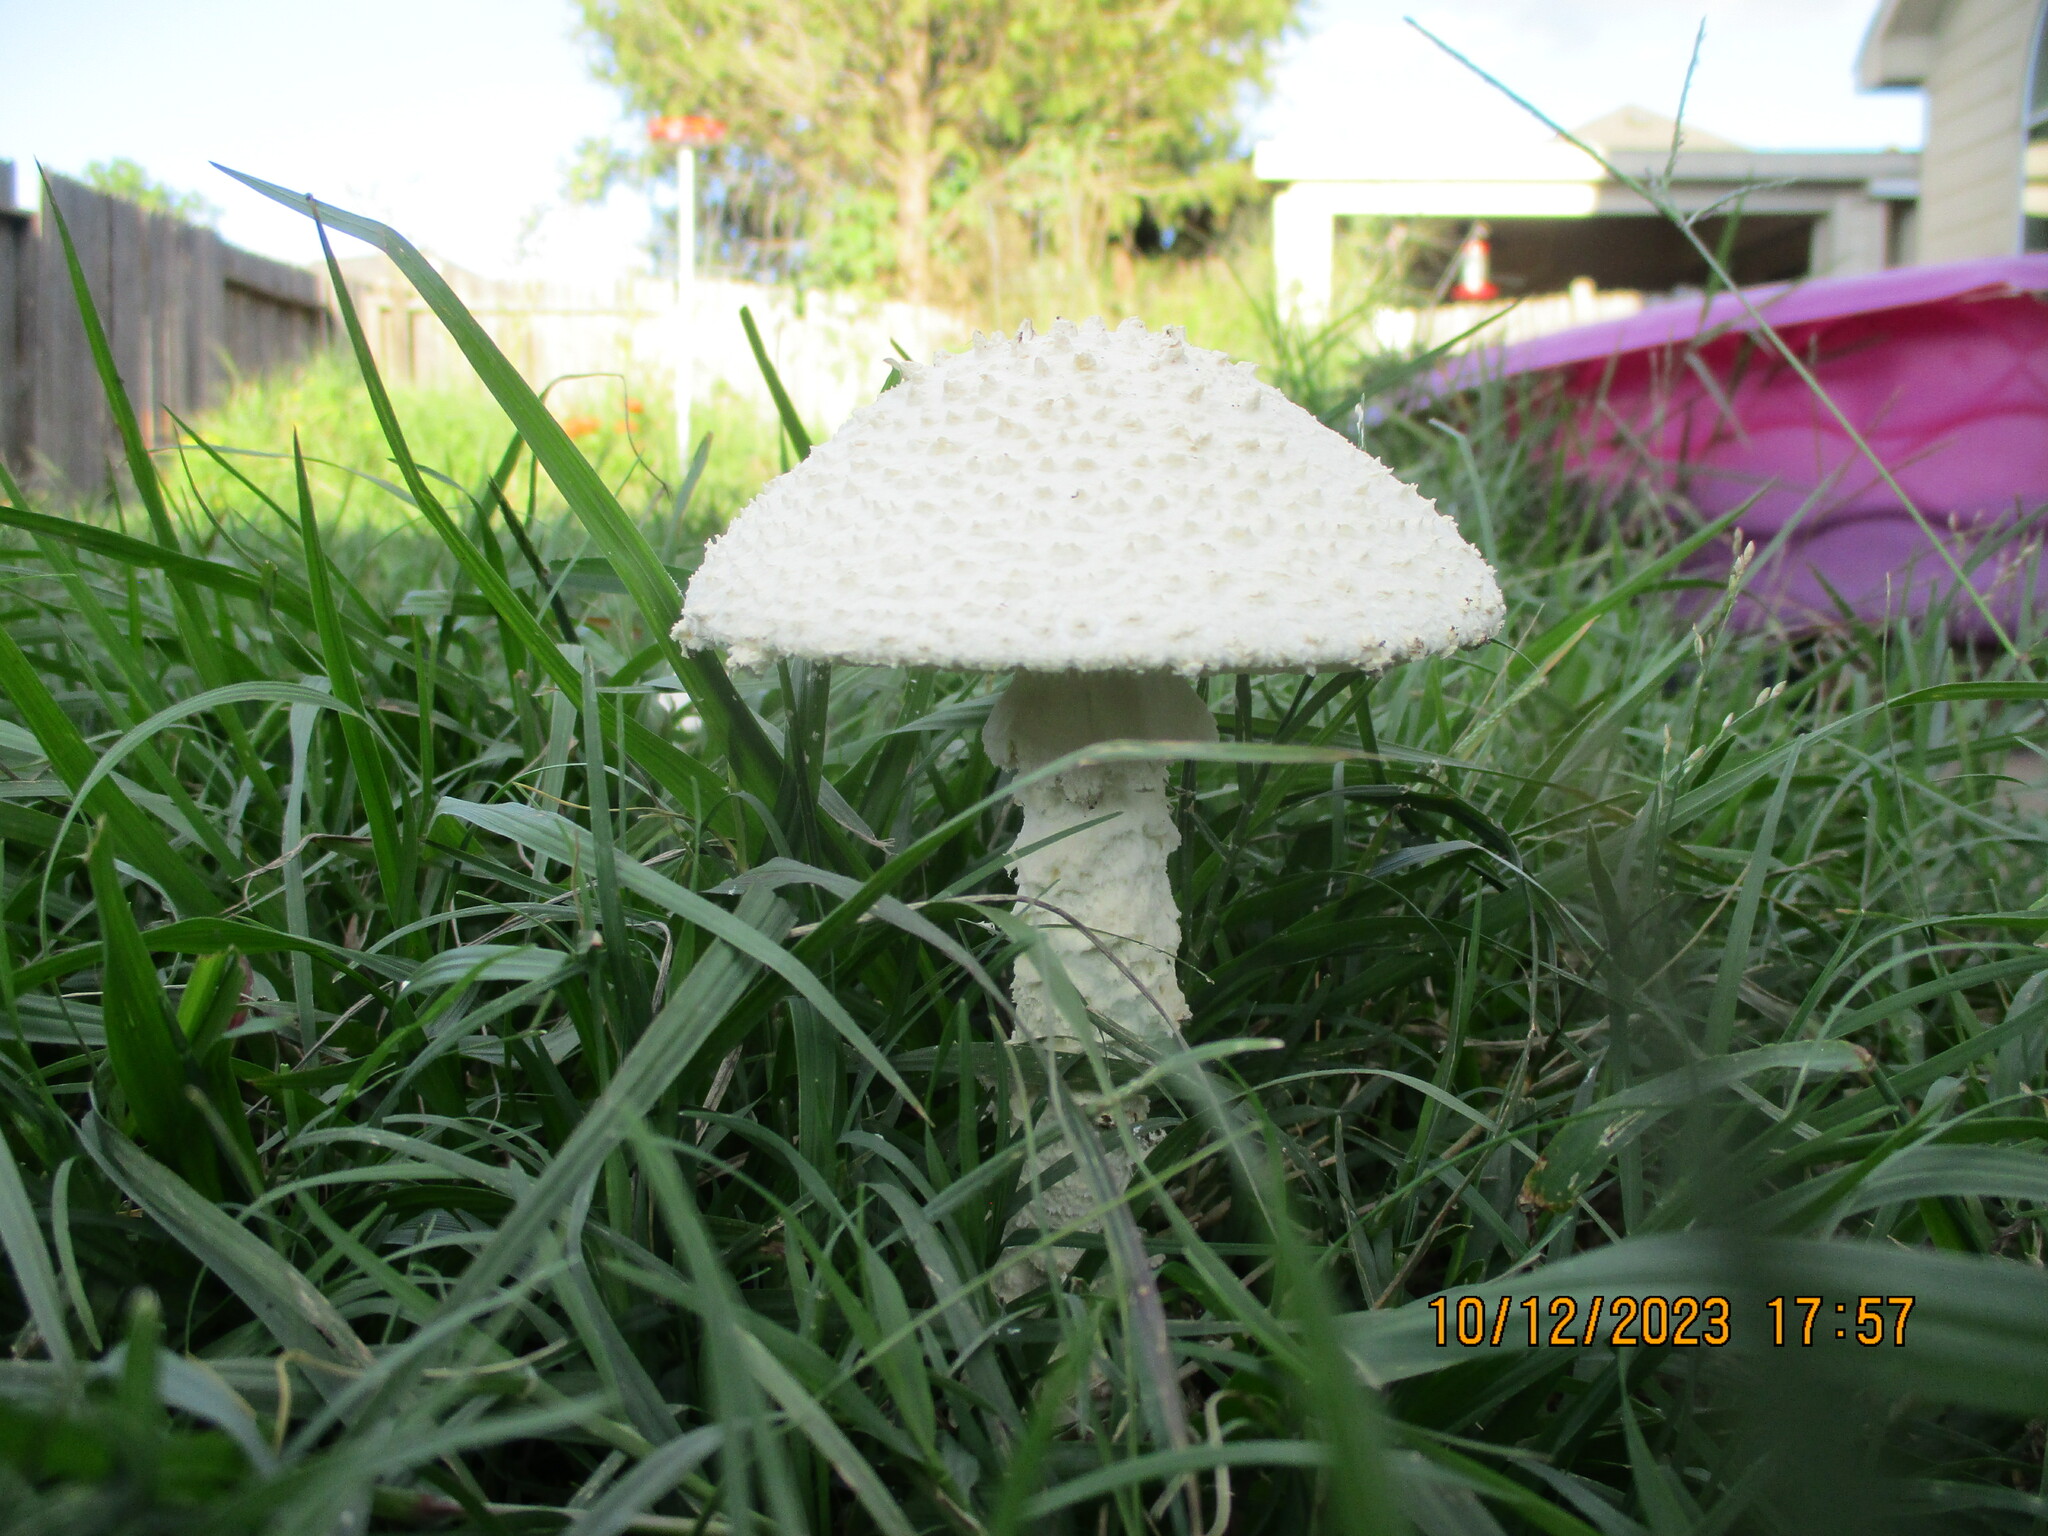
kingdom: Fungi
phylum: Basidiomycota
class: Agaricomycetes
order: Agaricales
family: Amanitaceae
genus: Amanita
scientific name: Amanita thiersii
